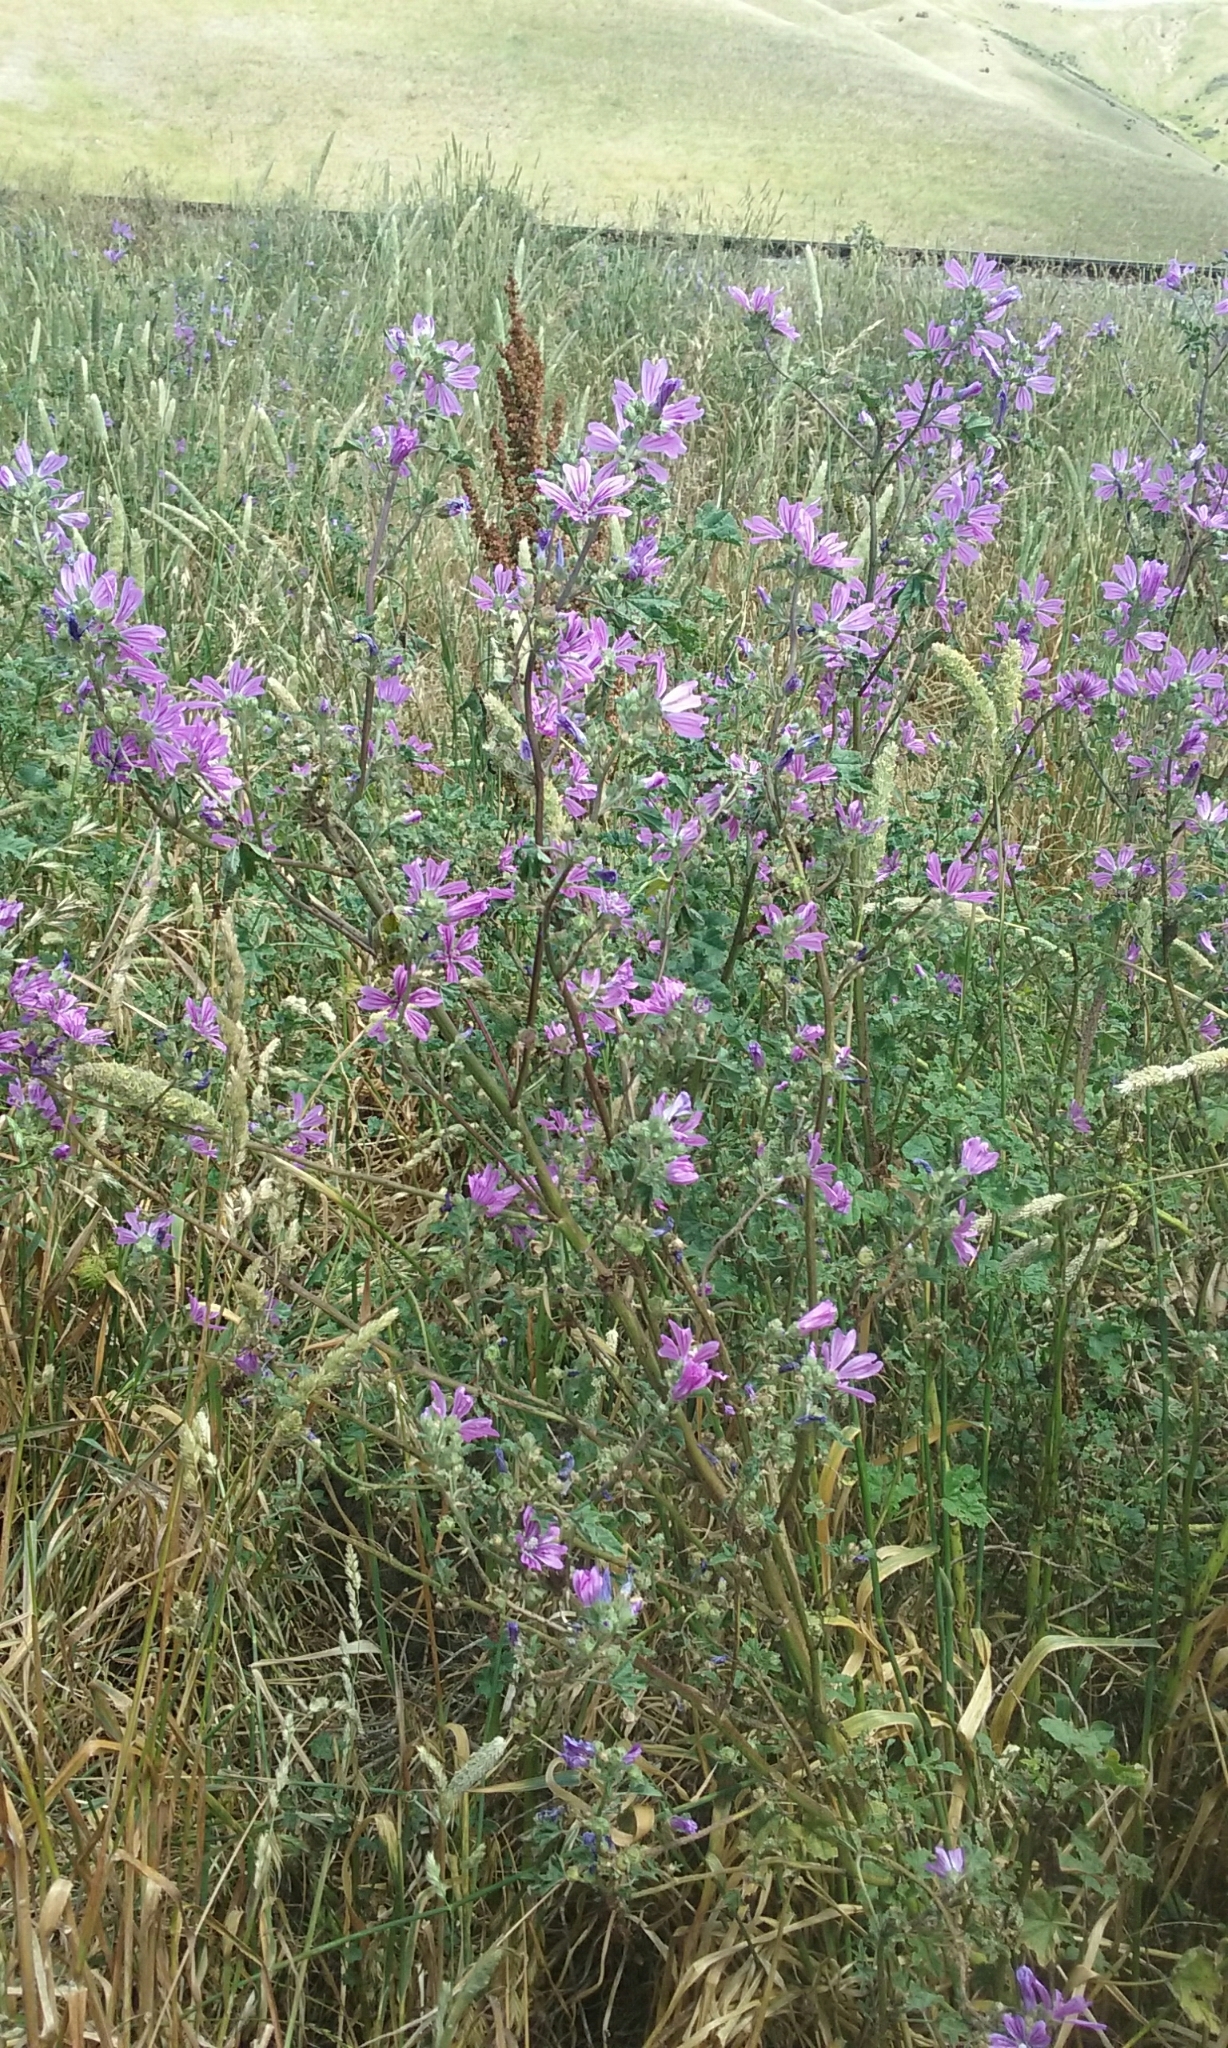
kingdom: Plantae
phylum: Tracheophyta
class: Magnoliopsida
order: Malvales
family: Malvaceae
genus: Malva
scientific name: Malva sylvestris
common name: Common mallow
